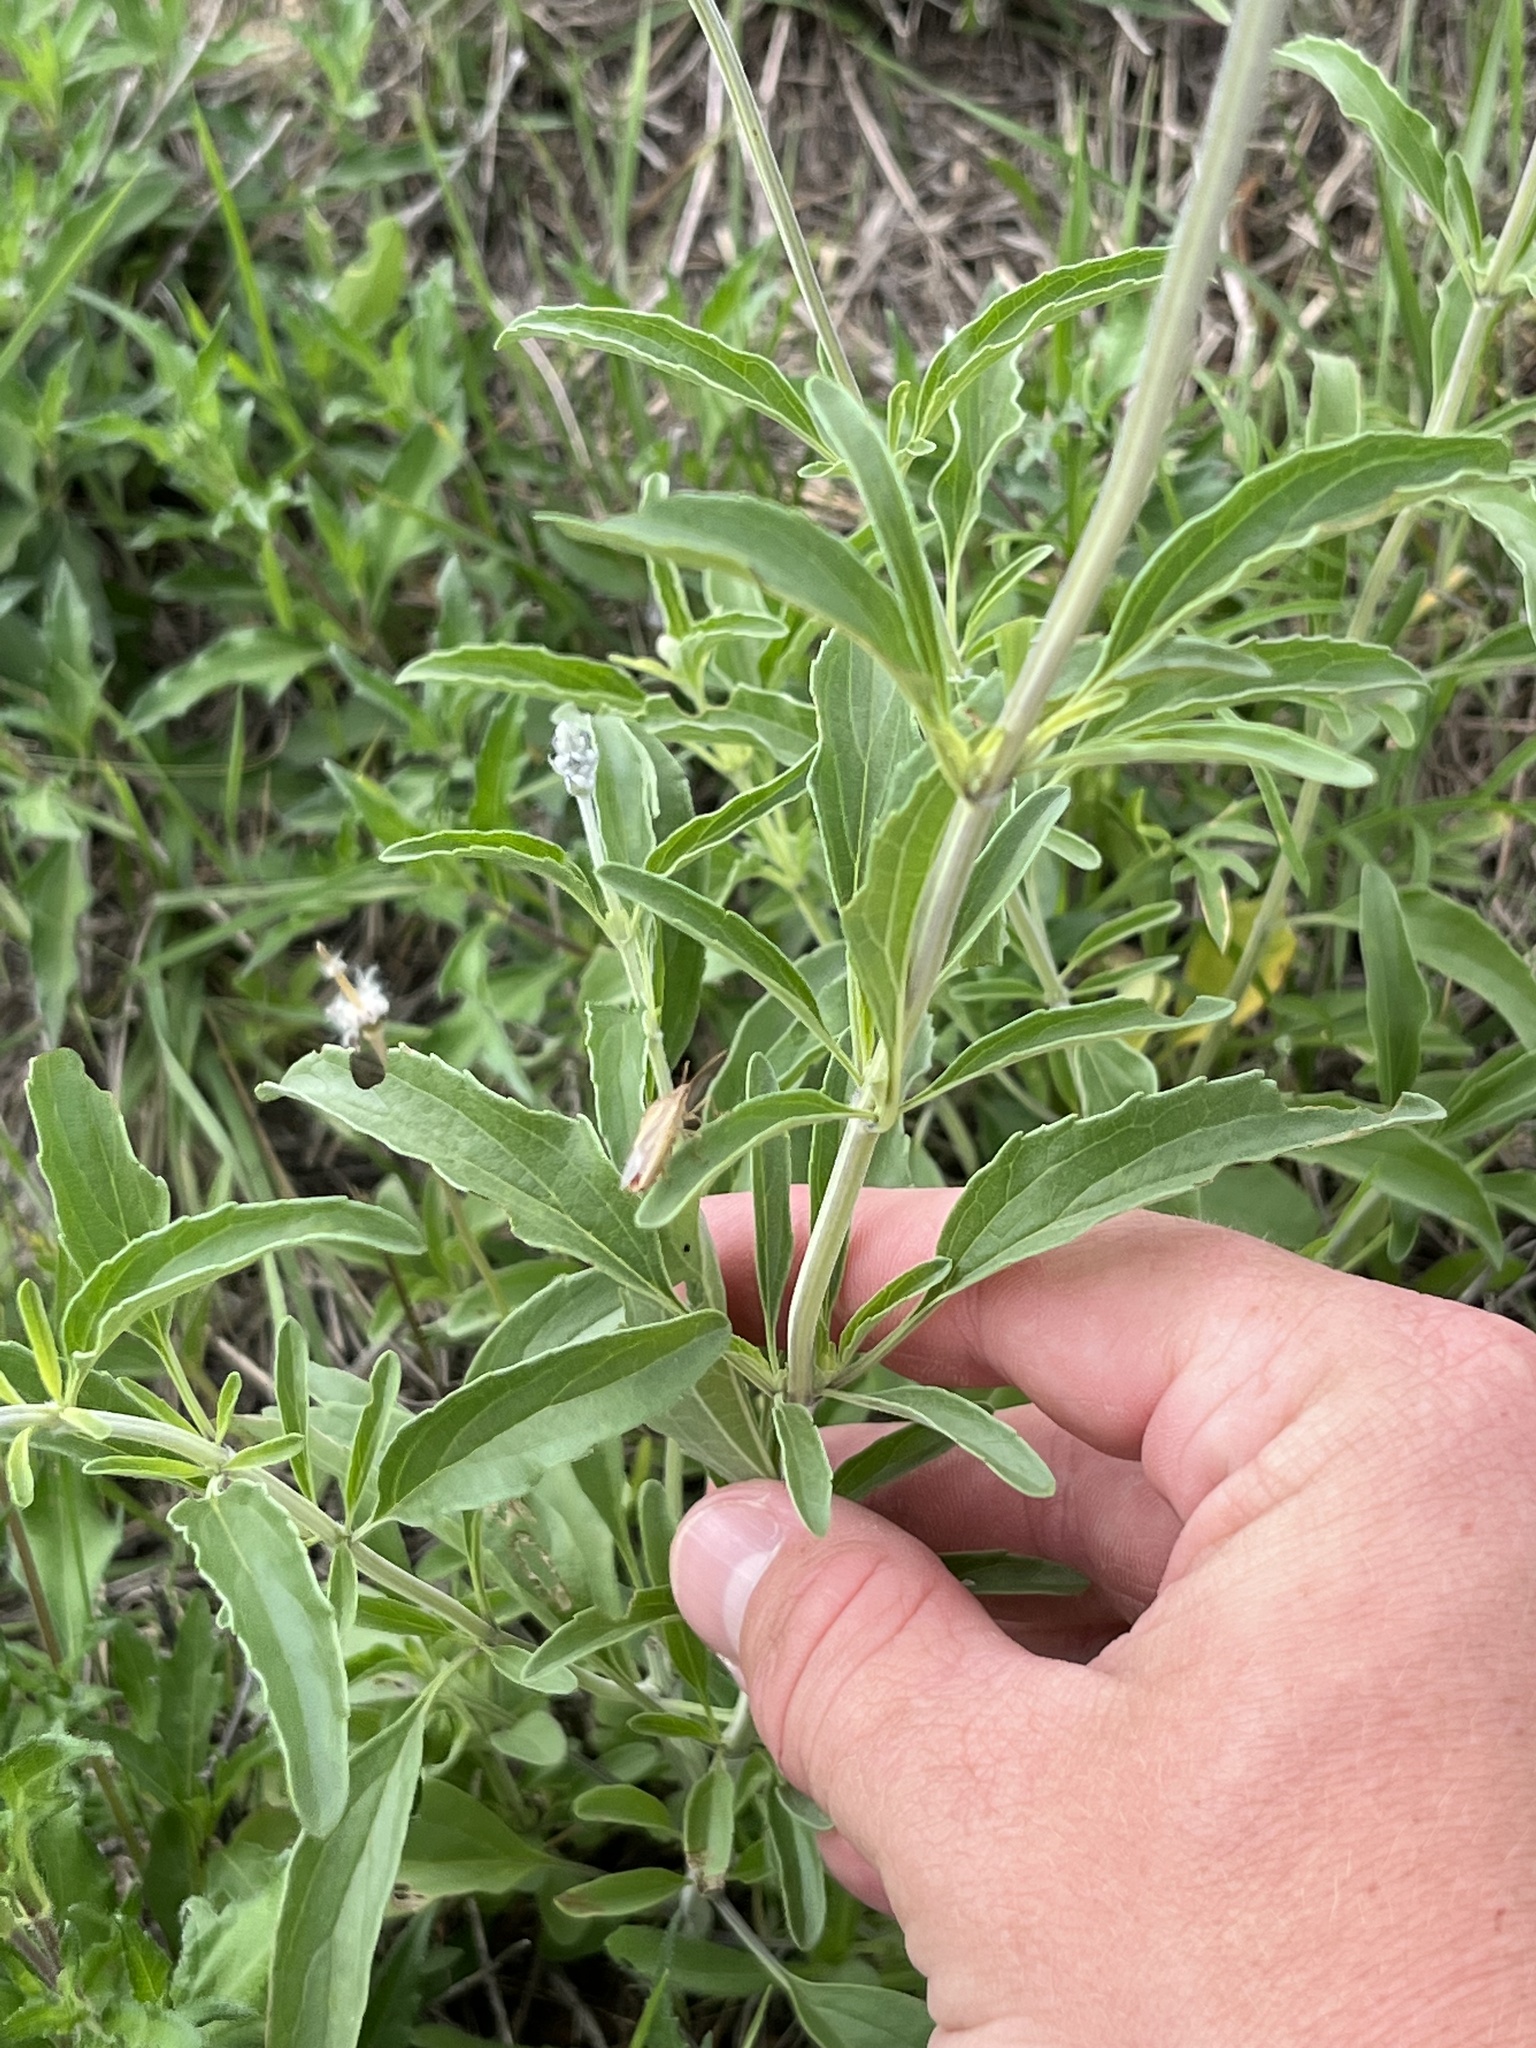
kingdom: Plantae
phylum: Tracheophyta
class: Magnoliopsida
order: Lamiales
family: Lamiaceae
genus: Salvia
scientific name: Salvia farinacea
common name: Mealy sage
